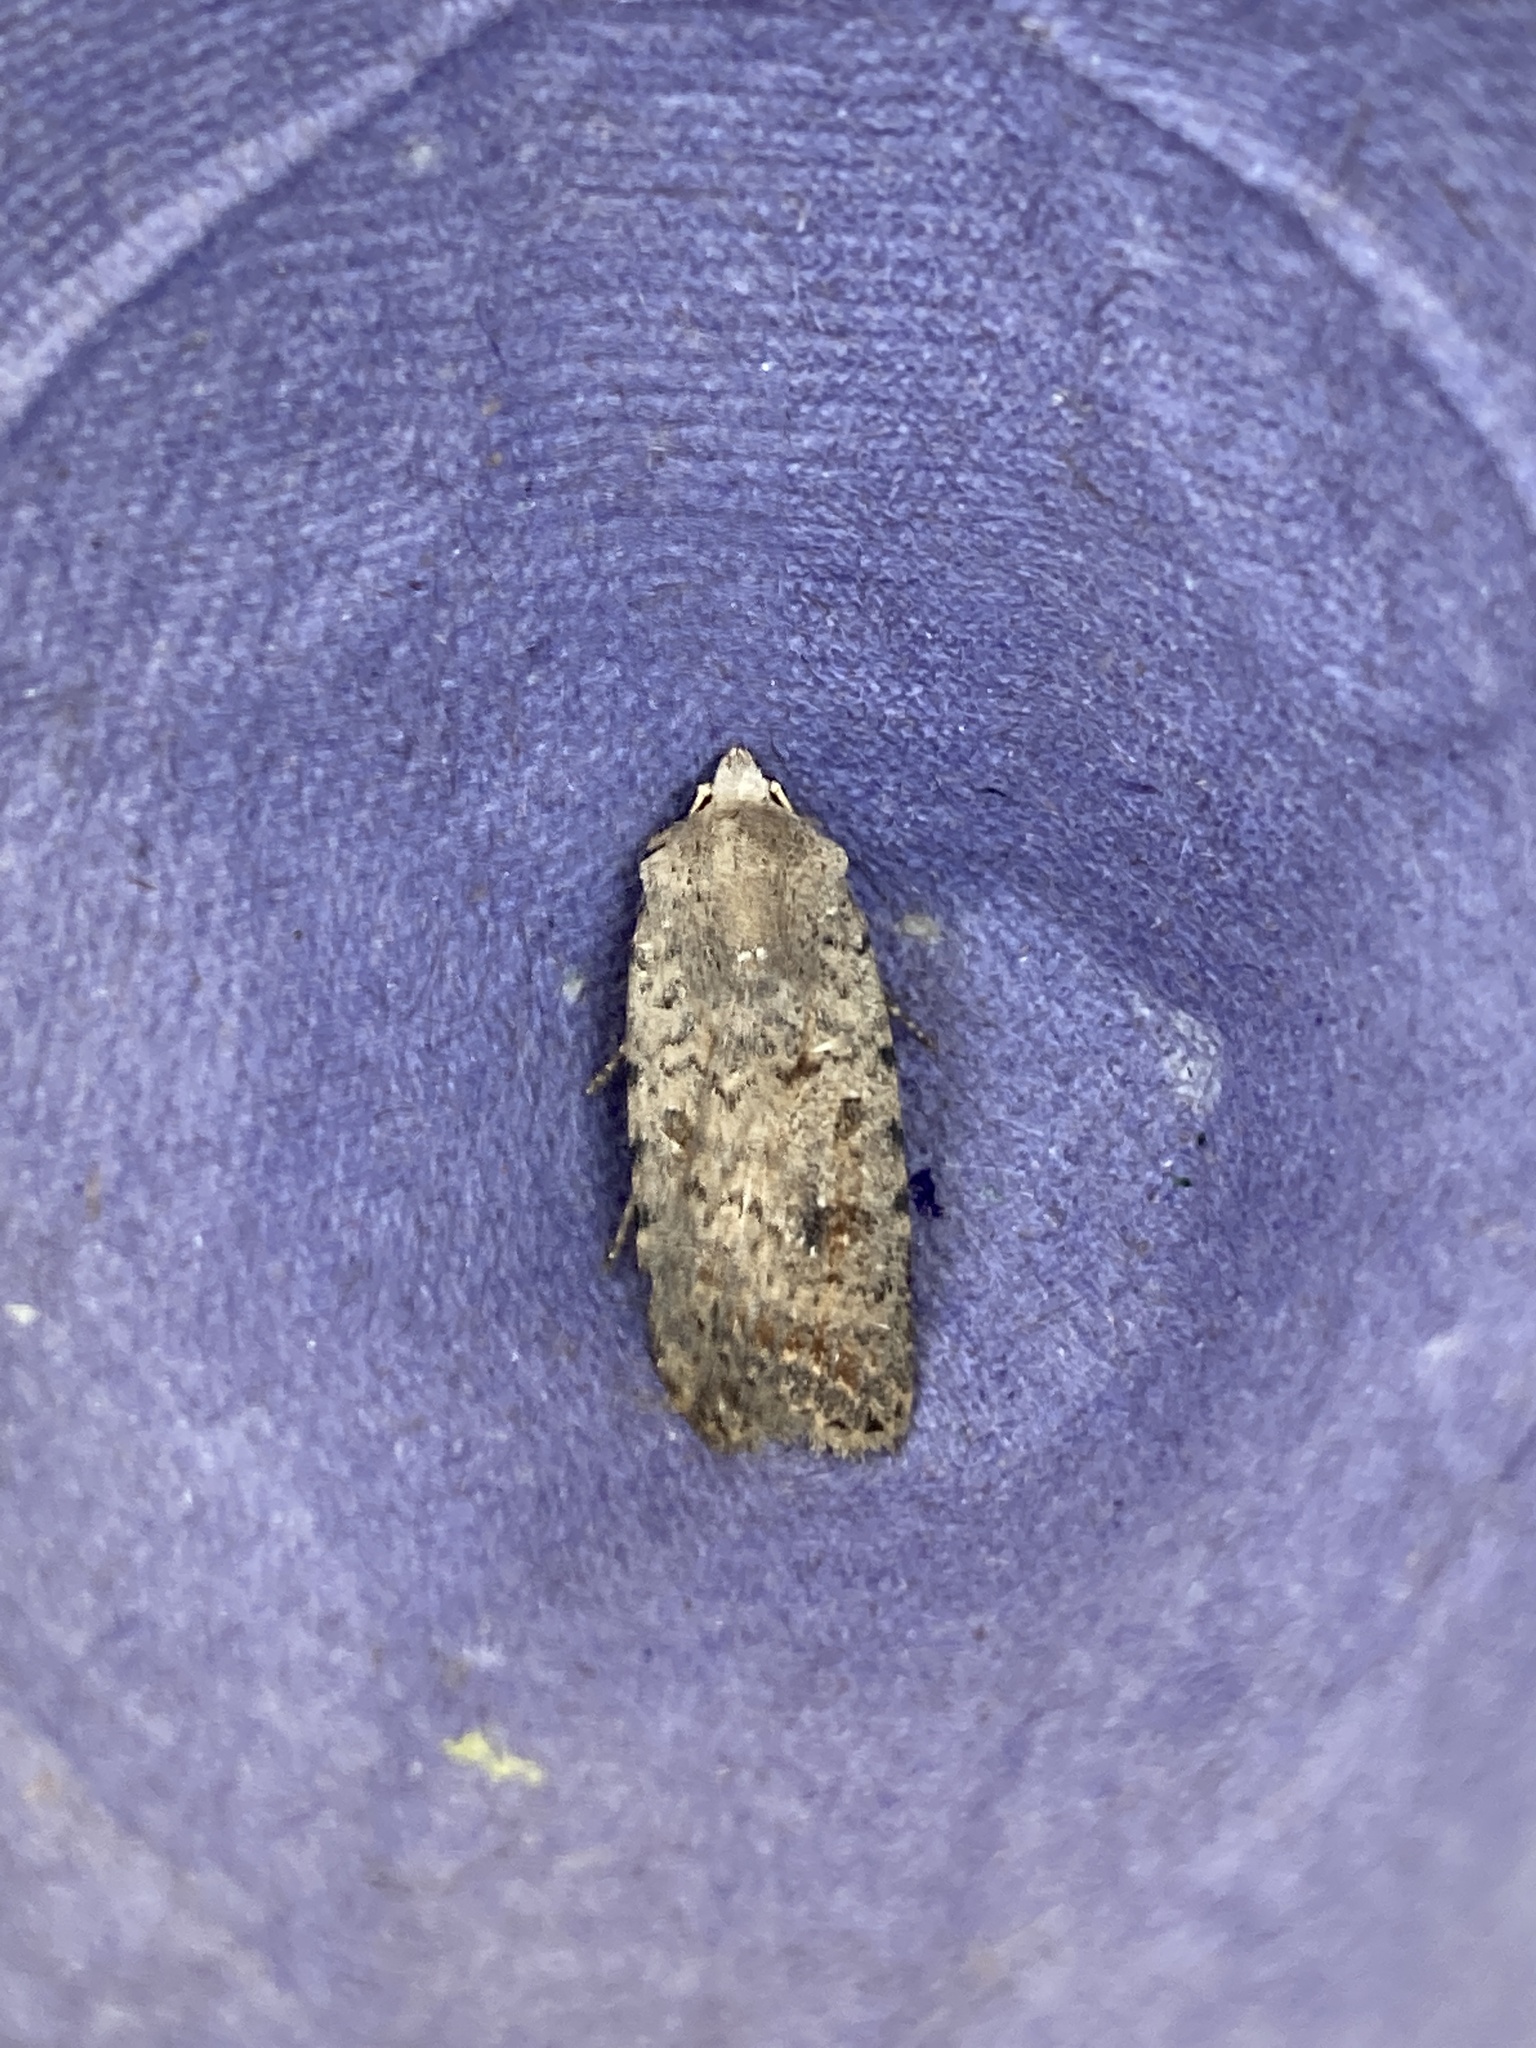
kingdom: Animalia
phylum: Arthropoda
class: Insecta
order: Lepidoptera
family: Noctuidae
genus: Caradrina
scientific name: Caradrina clavipalpis
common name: Pale mottled willow
